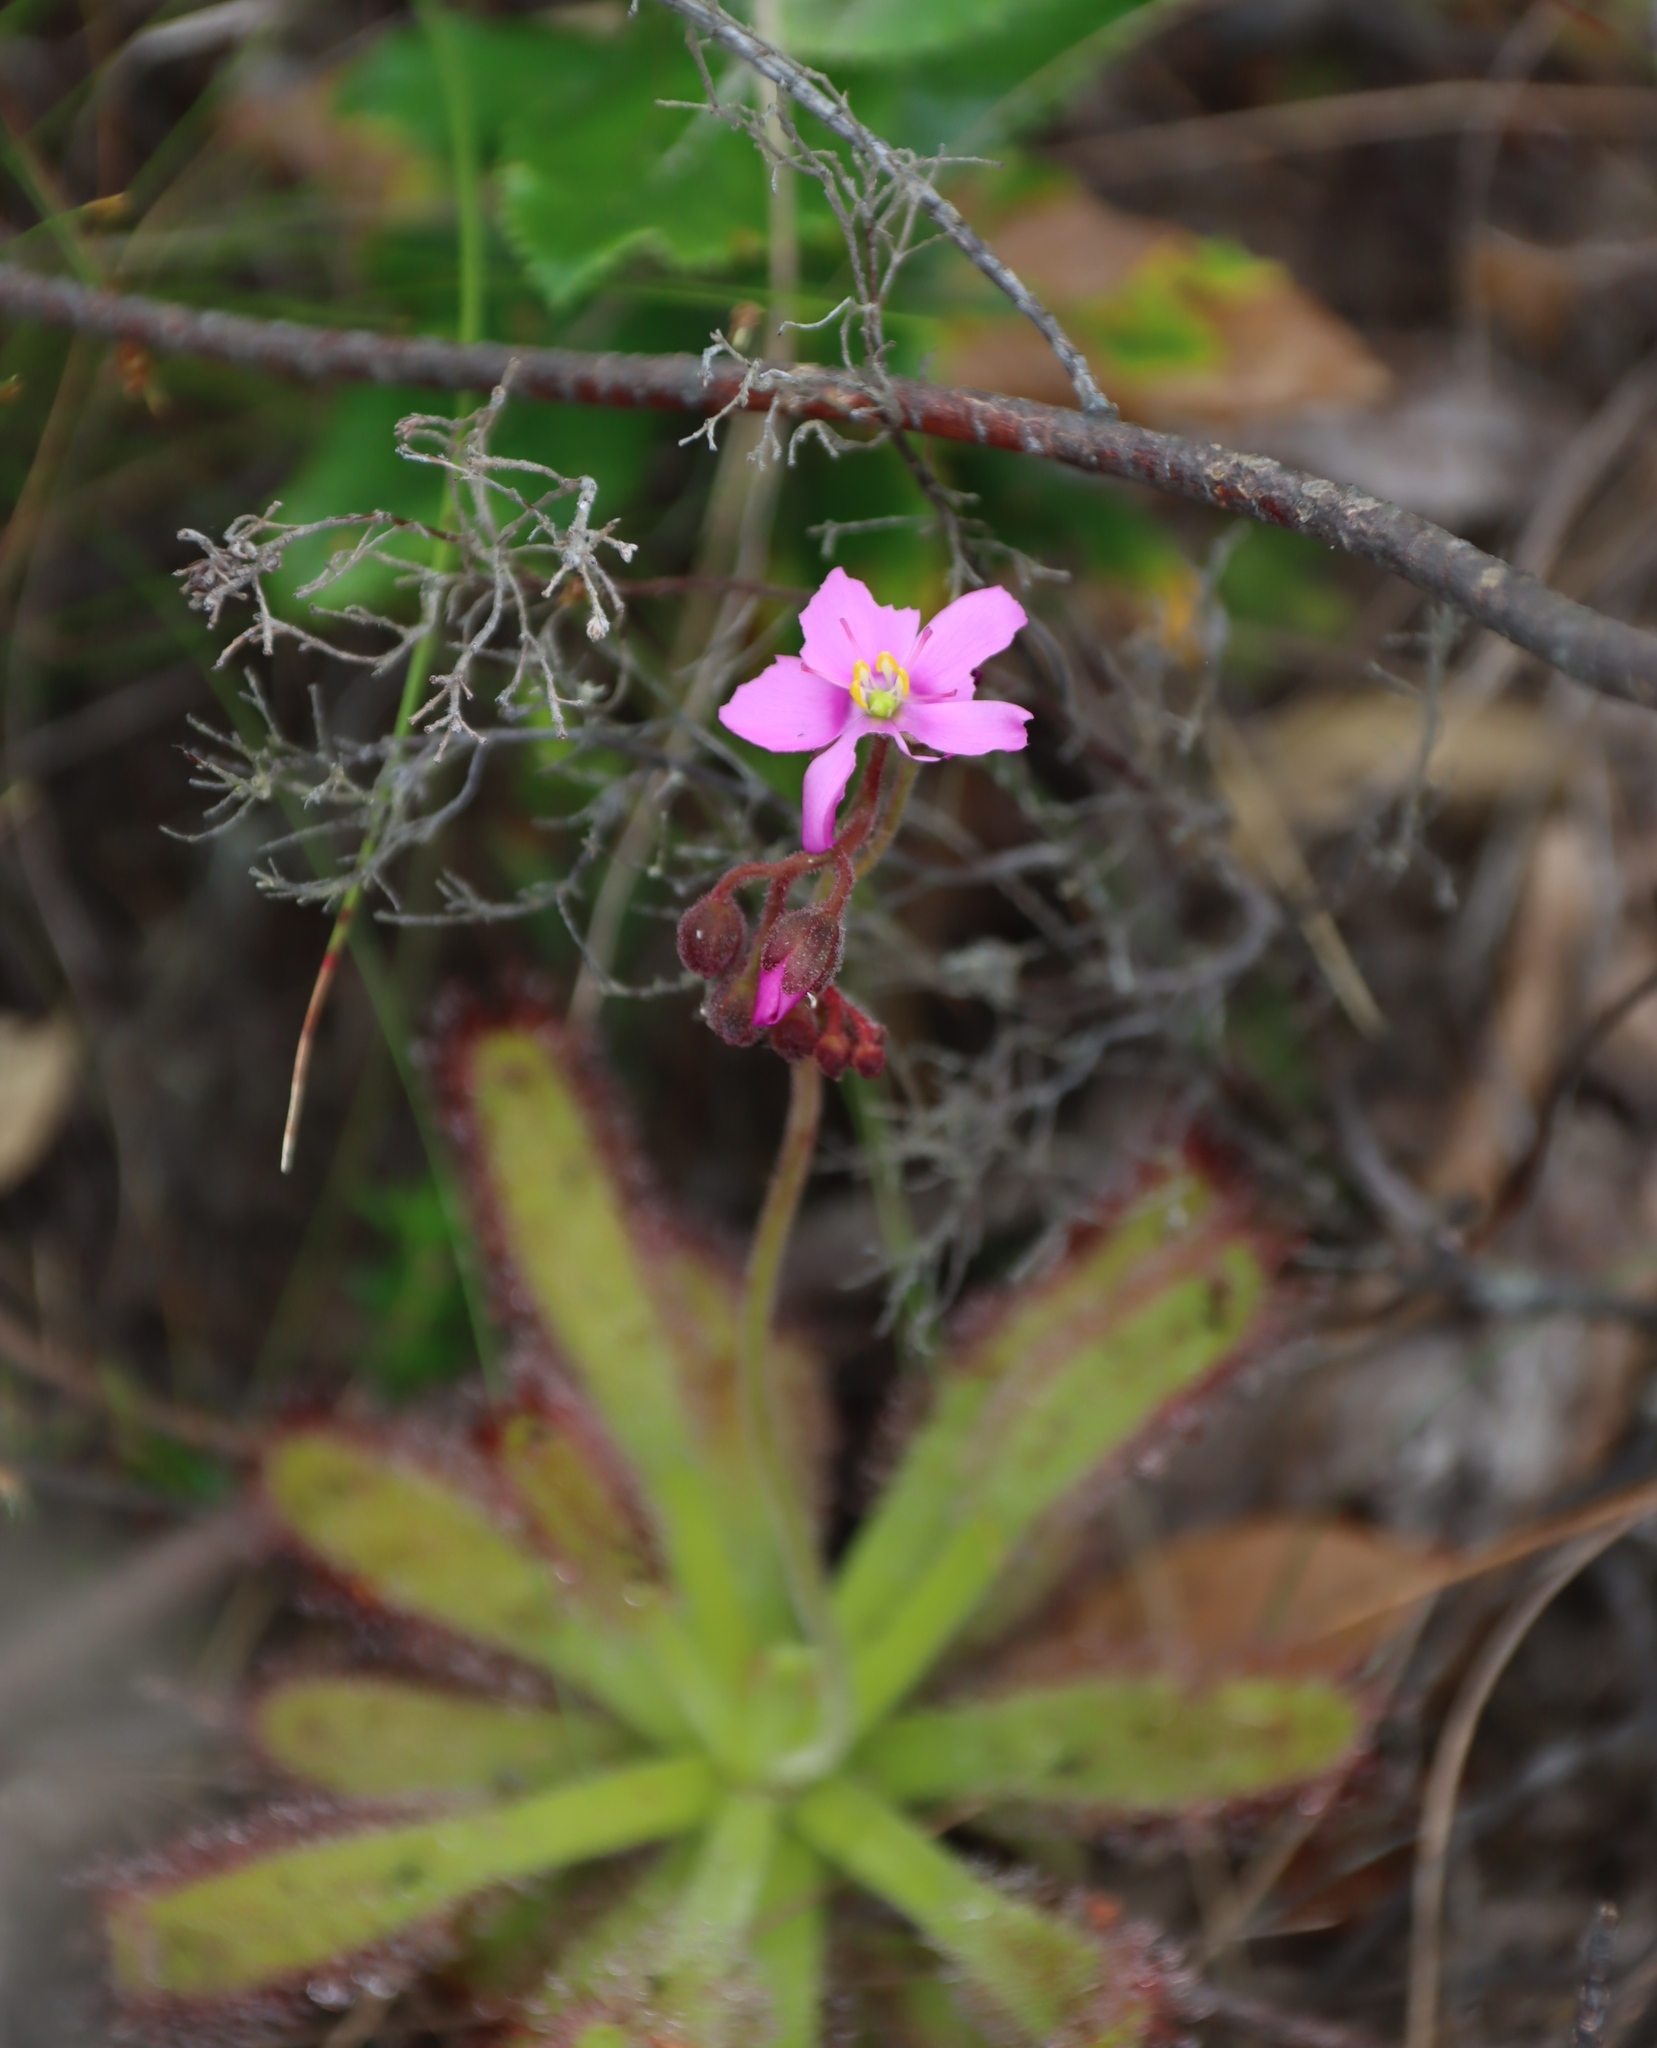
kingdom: Plantae
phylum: Tracheophyta
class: Magnoliopsida
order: Caryophyllales
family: Droseraceae
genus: Drosera
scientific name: Drosera hilaris
